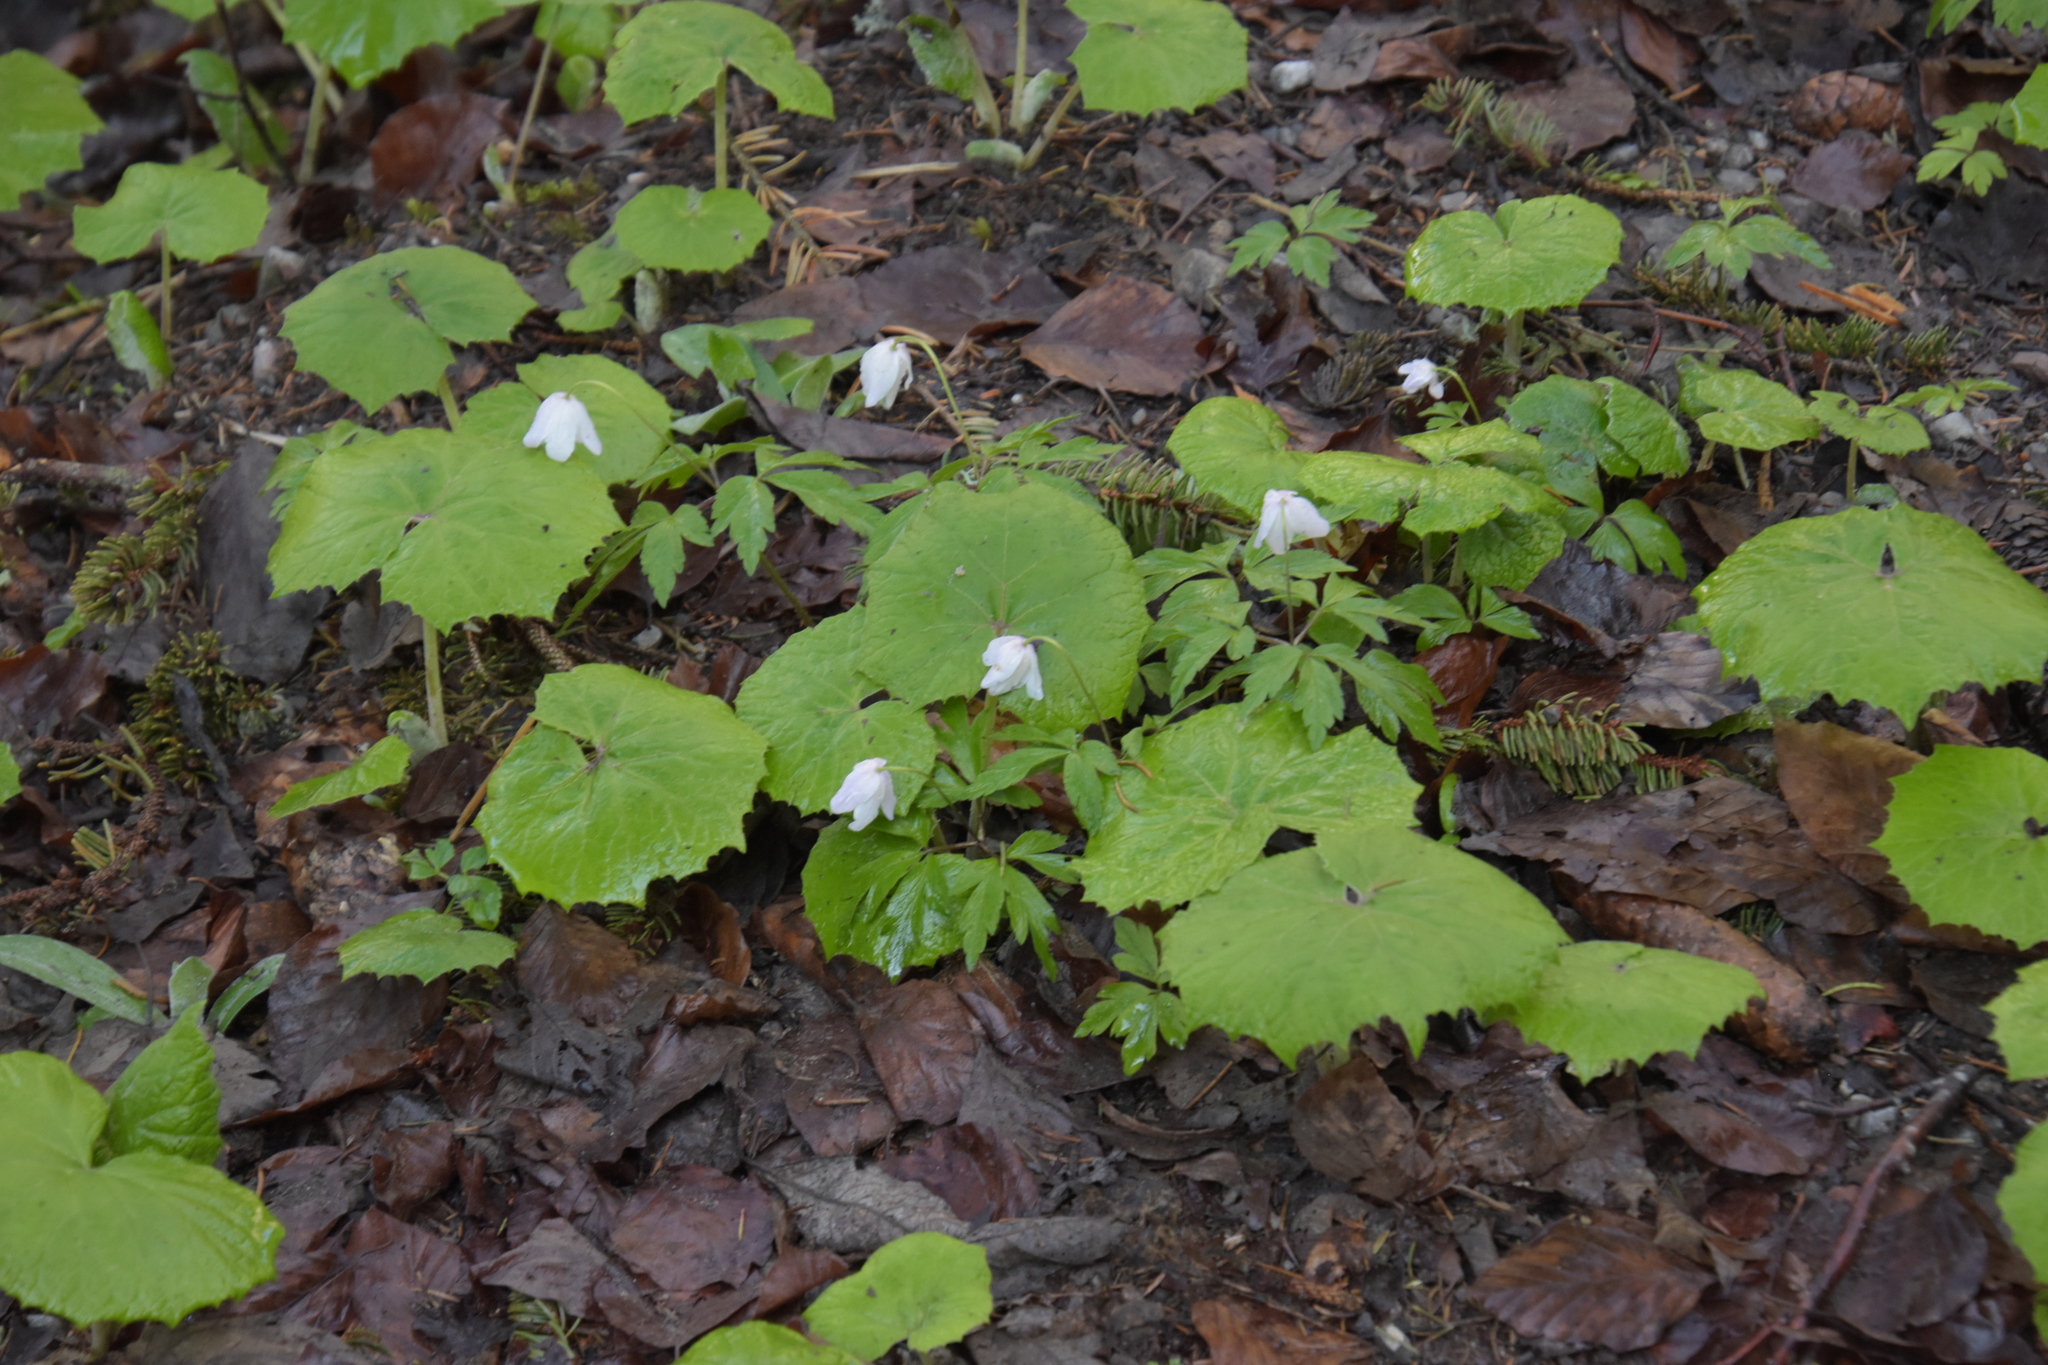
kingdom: Plantae
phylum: Tracheophyta
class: Magnoliopsida
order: Ranunculales
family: Ranunculaceae
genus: Anemone
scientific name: Anemone nemorosa
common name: Wood anemone
